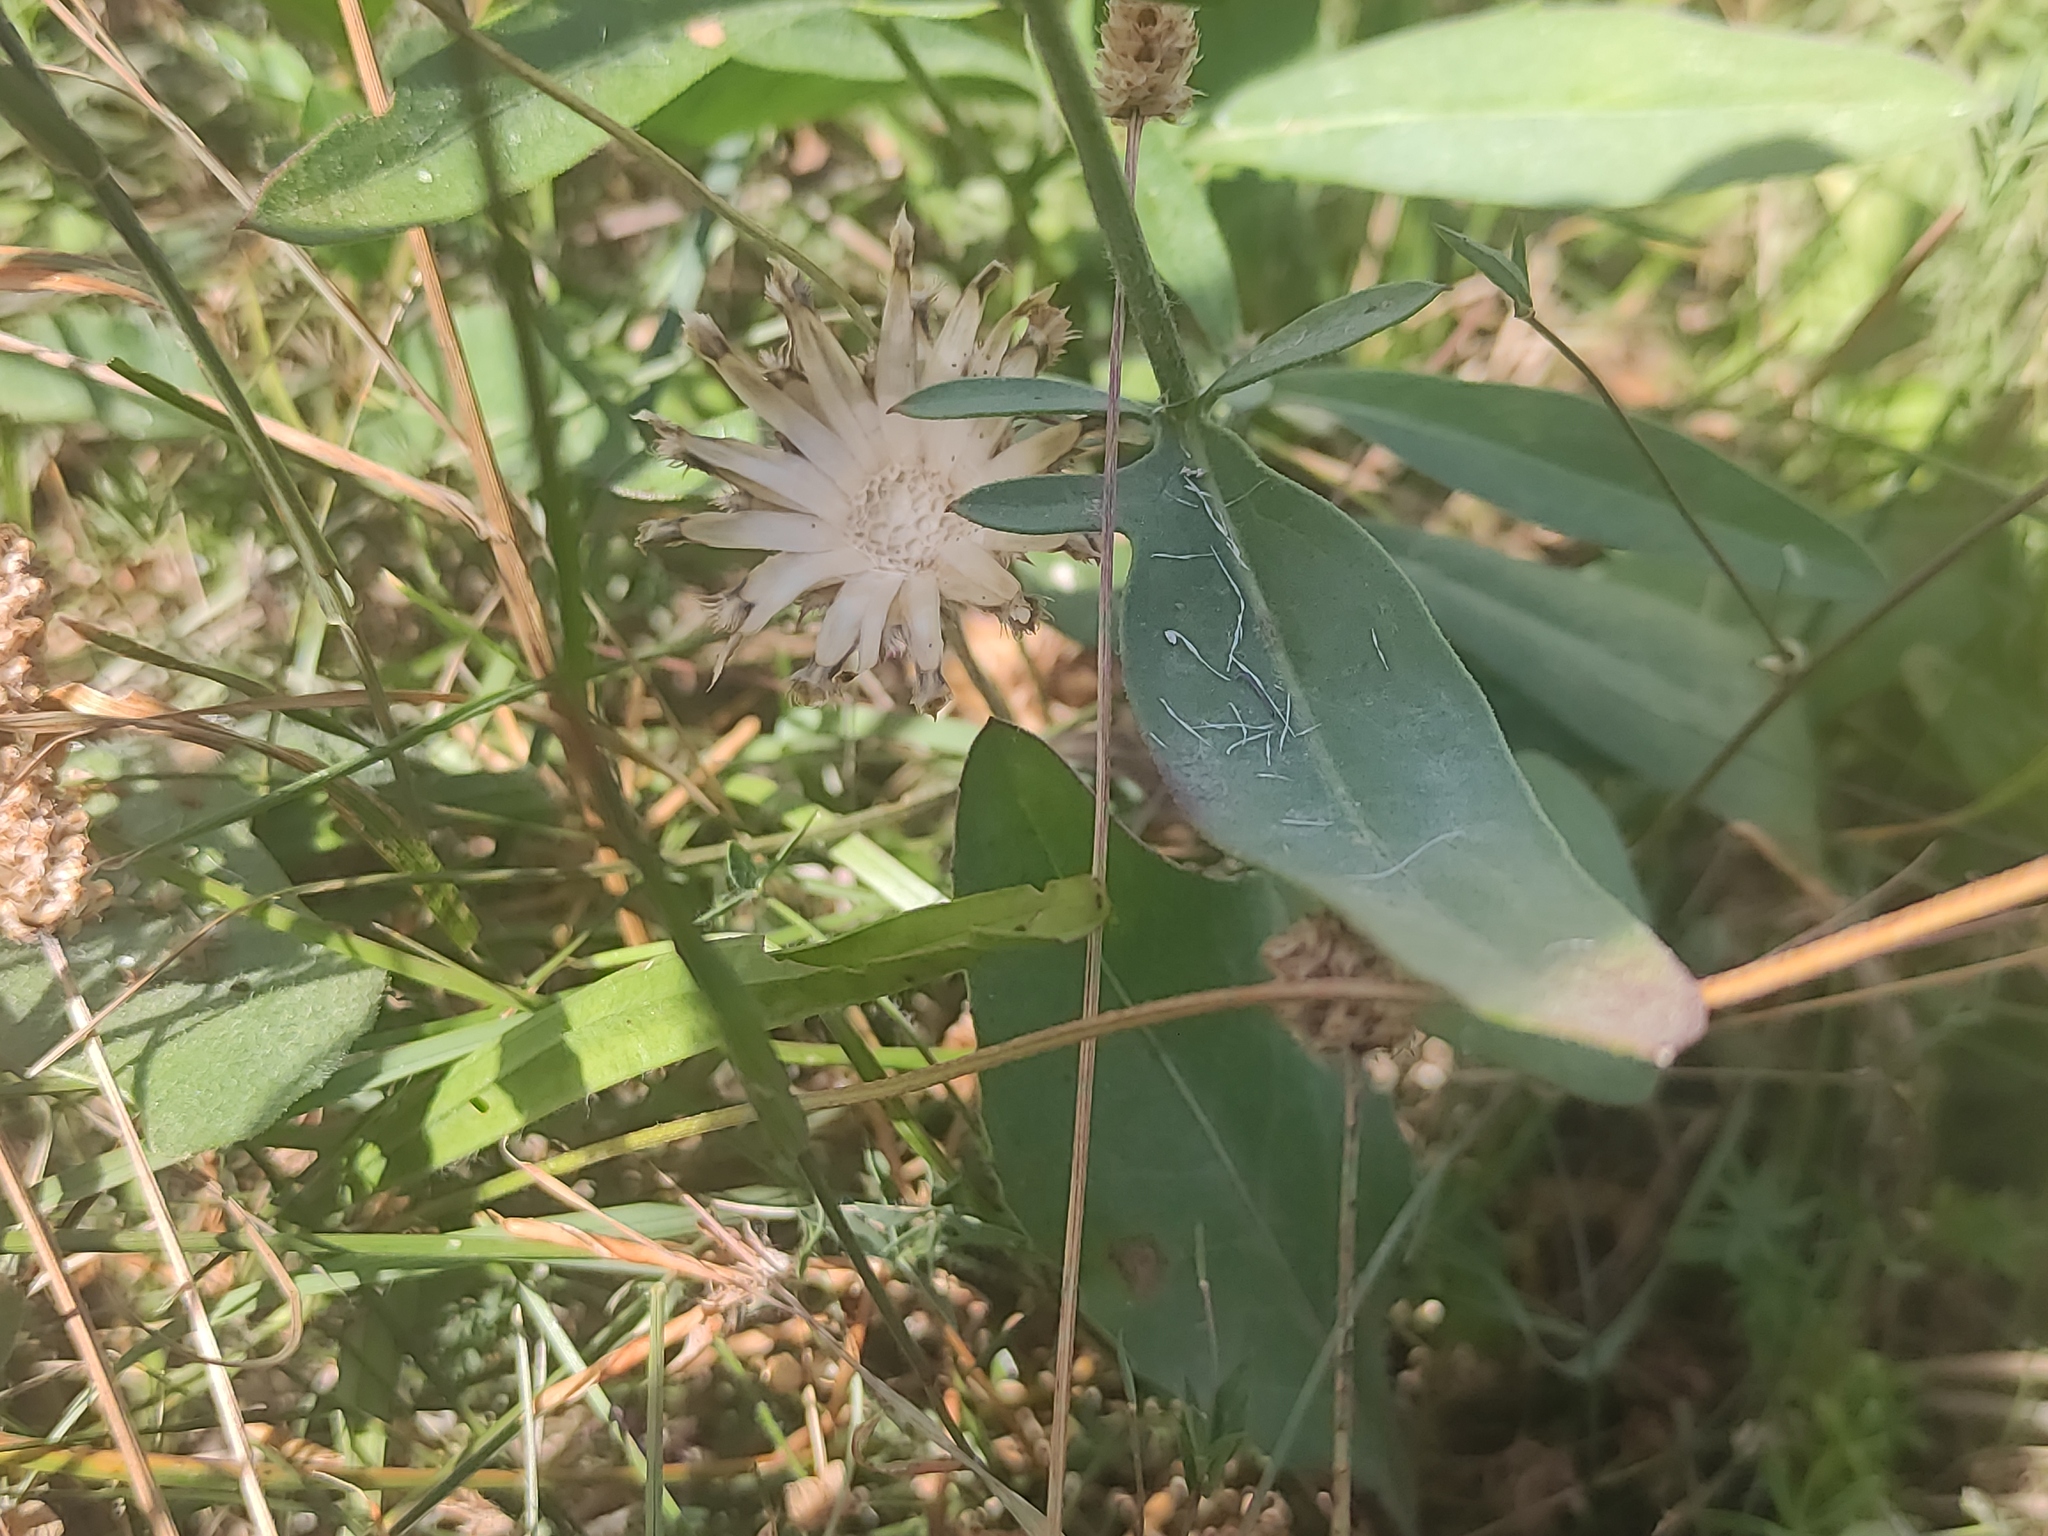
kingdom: Plantae
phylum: Tracheophyta
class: Magnoliopsida
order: Asterales
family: Asteraceae
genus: Centaurea
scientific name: Centaurea scabiosa
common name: Greater knapweed
